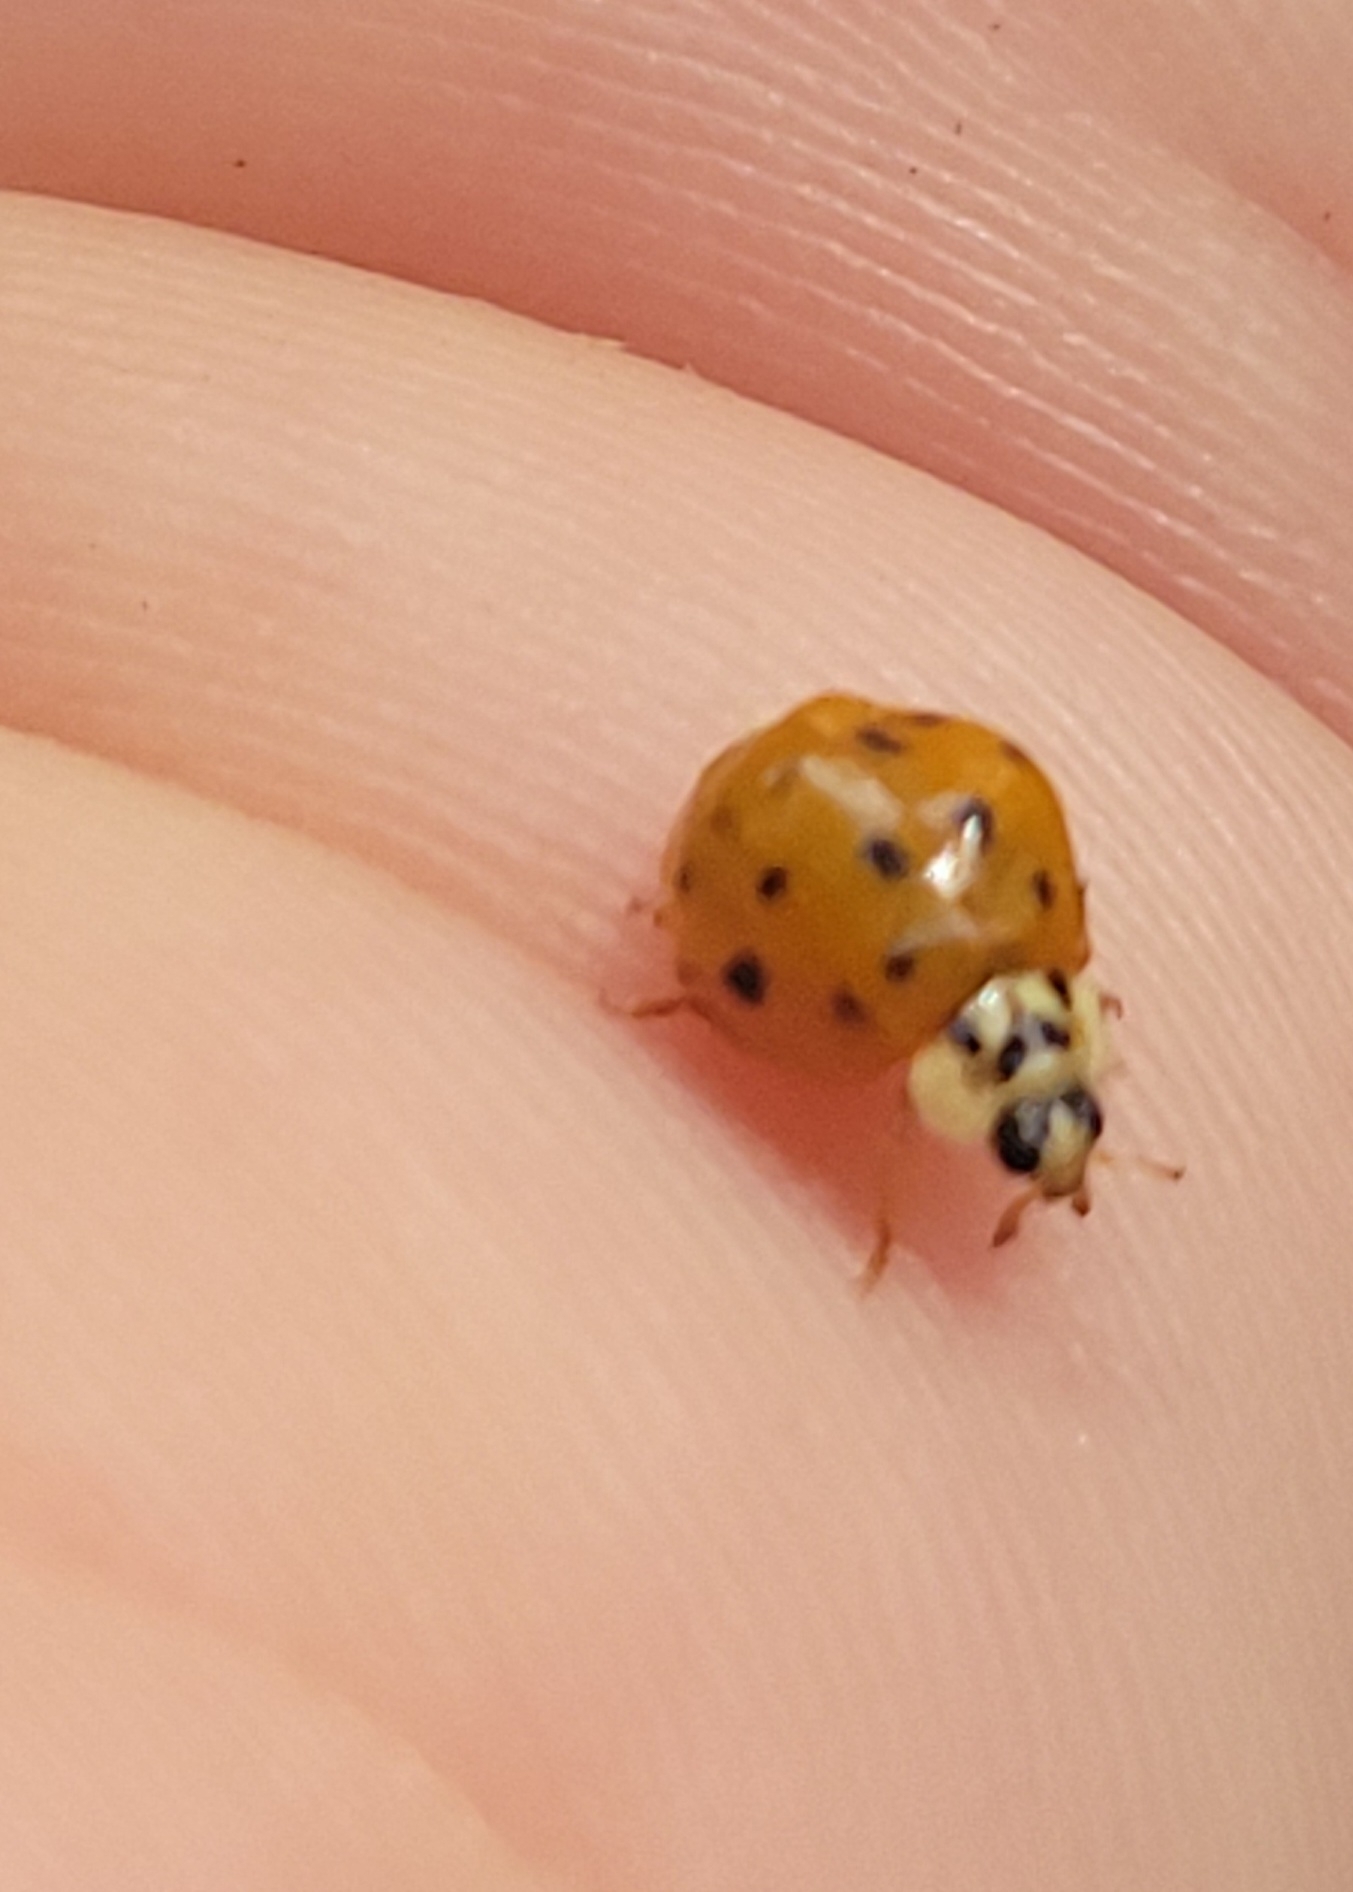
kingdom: Animalia
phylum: Arthropoda
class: Insecta
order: Coleoptera
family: Coccinellidae
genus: Harmonia
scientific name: Harmonia axyridis
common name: Harlequin ladybird
